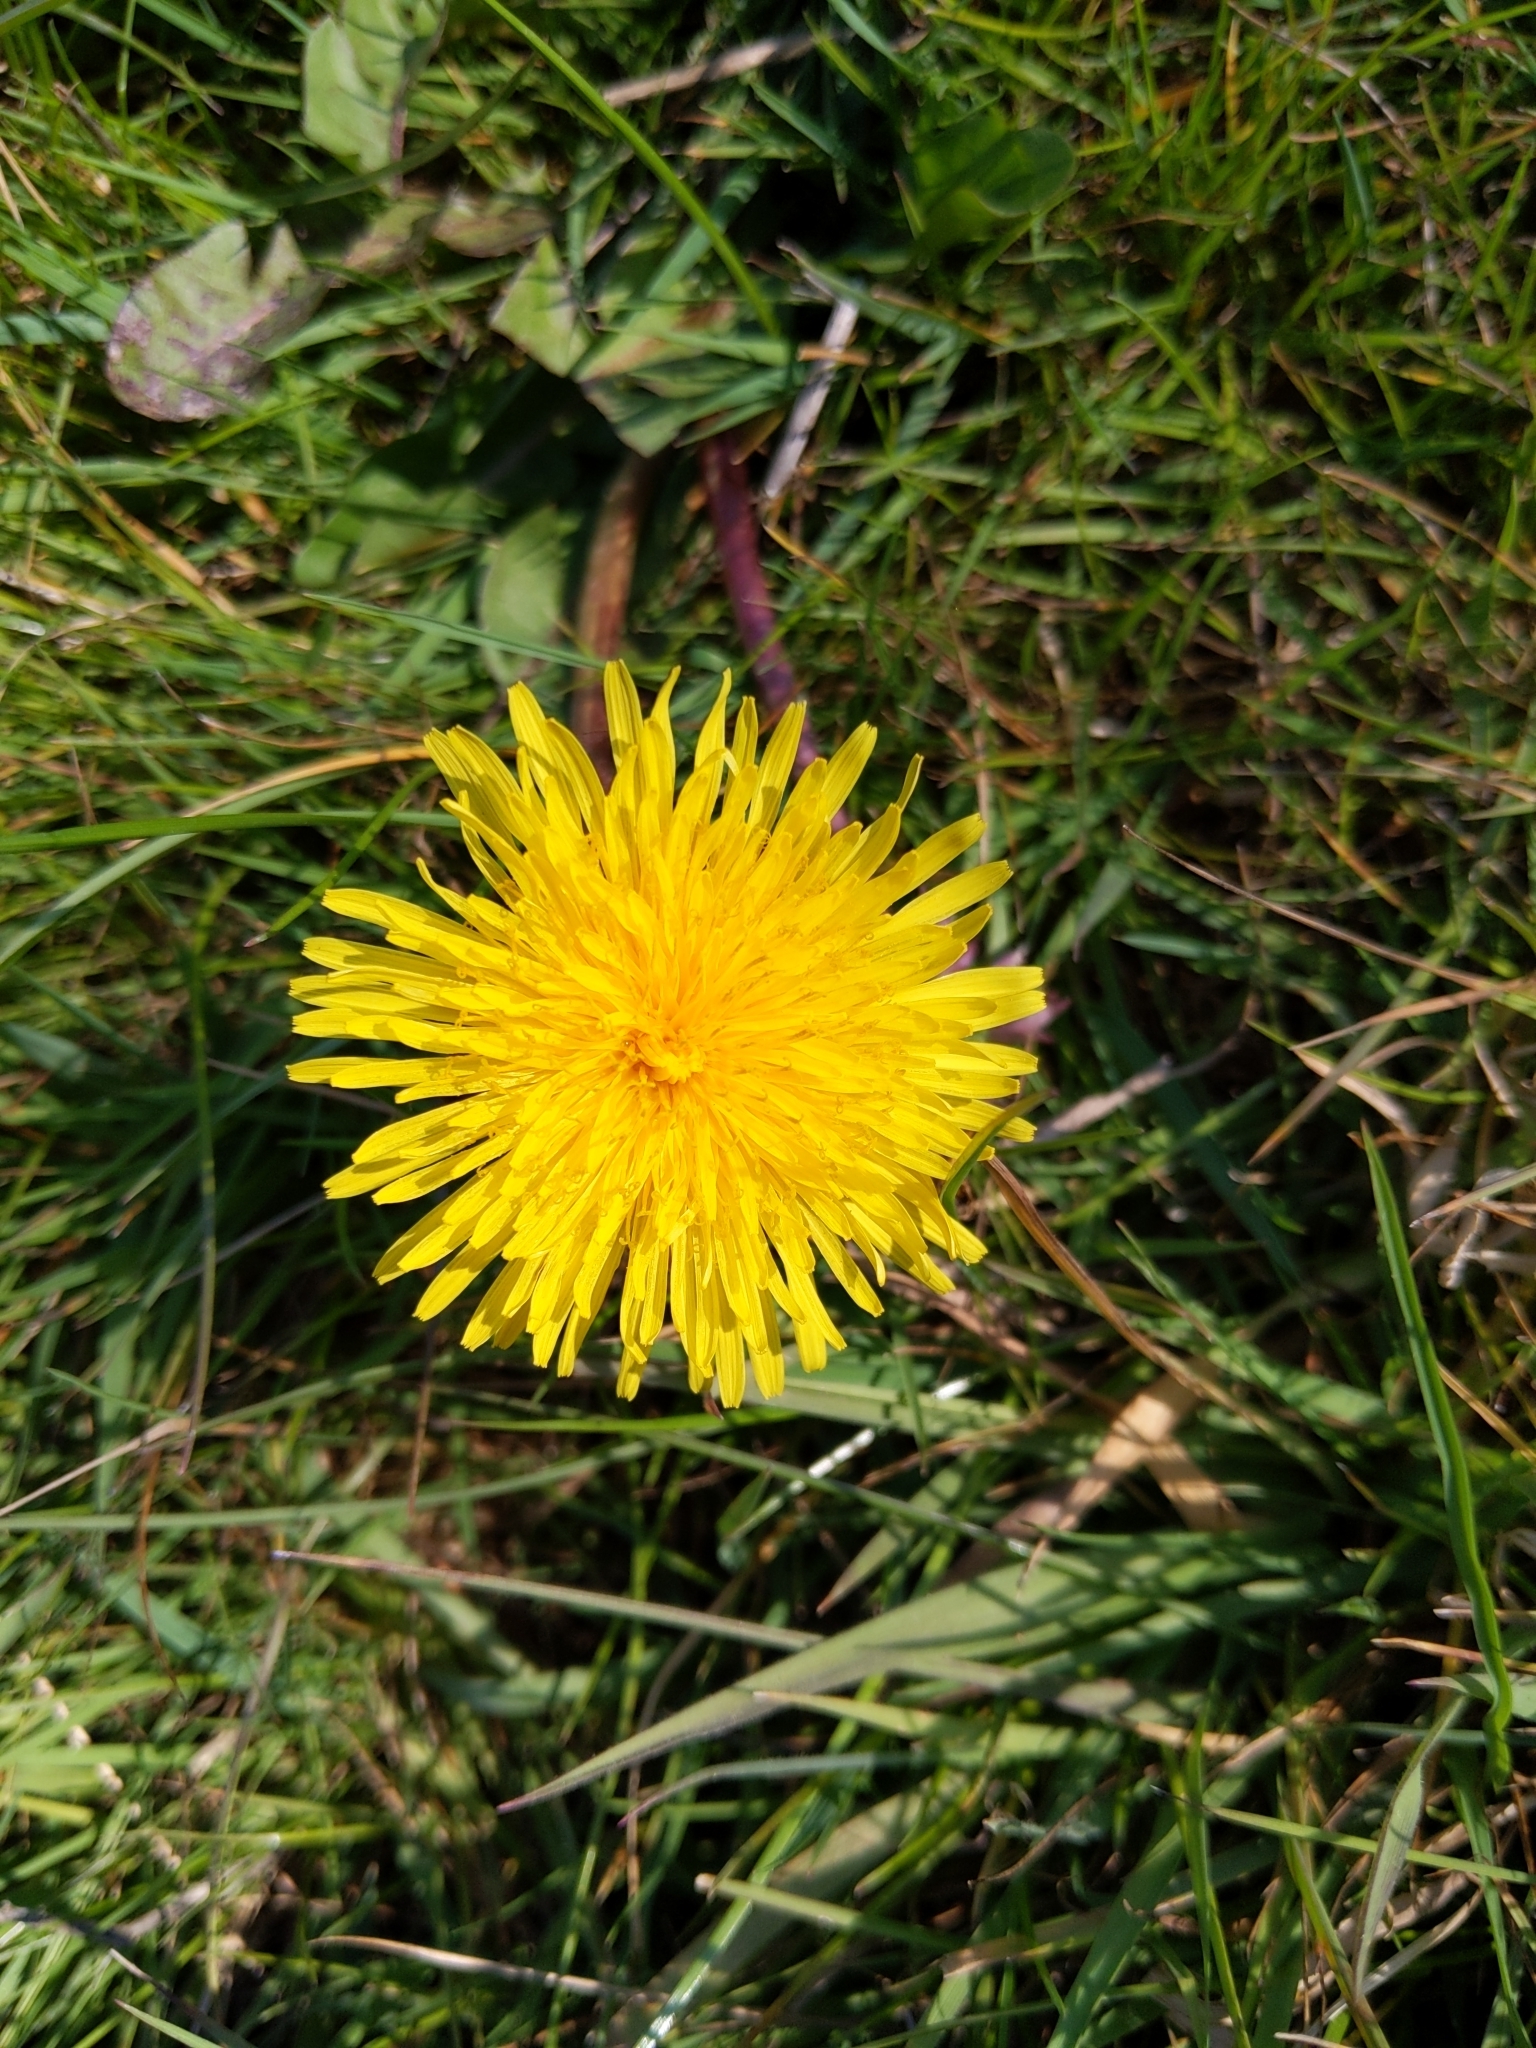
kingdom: Plantae
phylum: Tracheophyta
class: Magnoliopsida
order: Asterales
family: Asteraceae
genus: Taraxacum
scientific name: Taraxacum officinale
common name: Common dandelion
